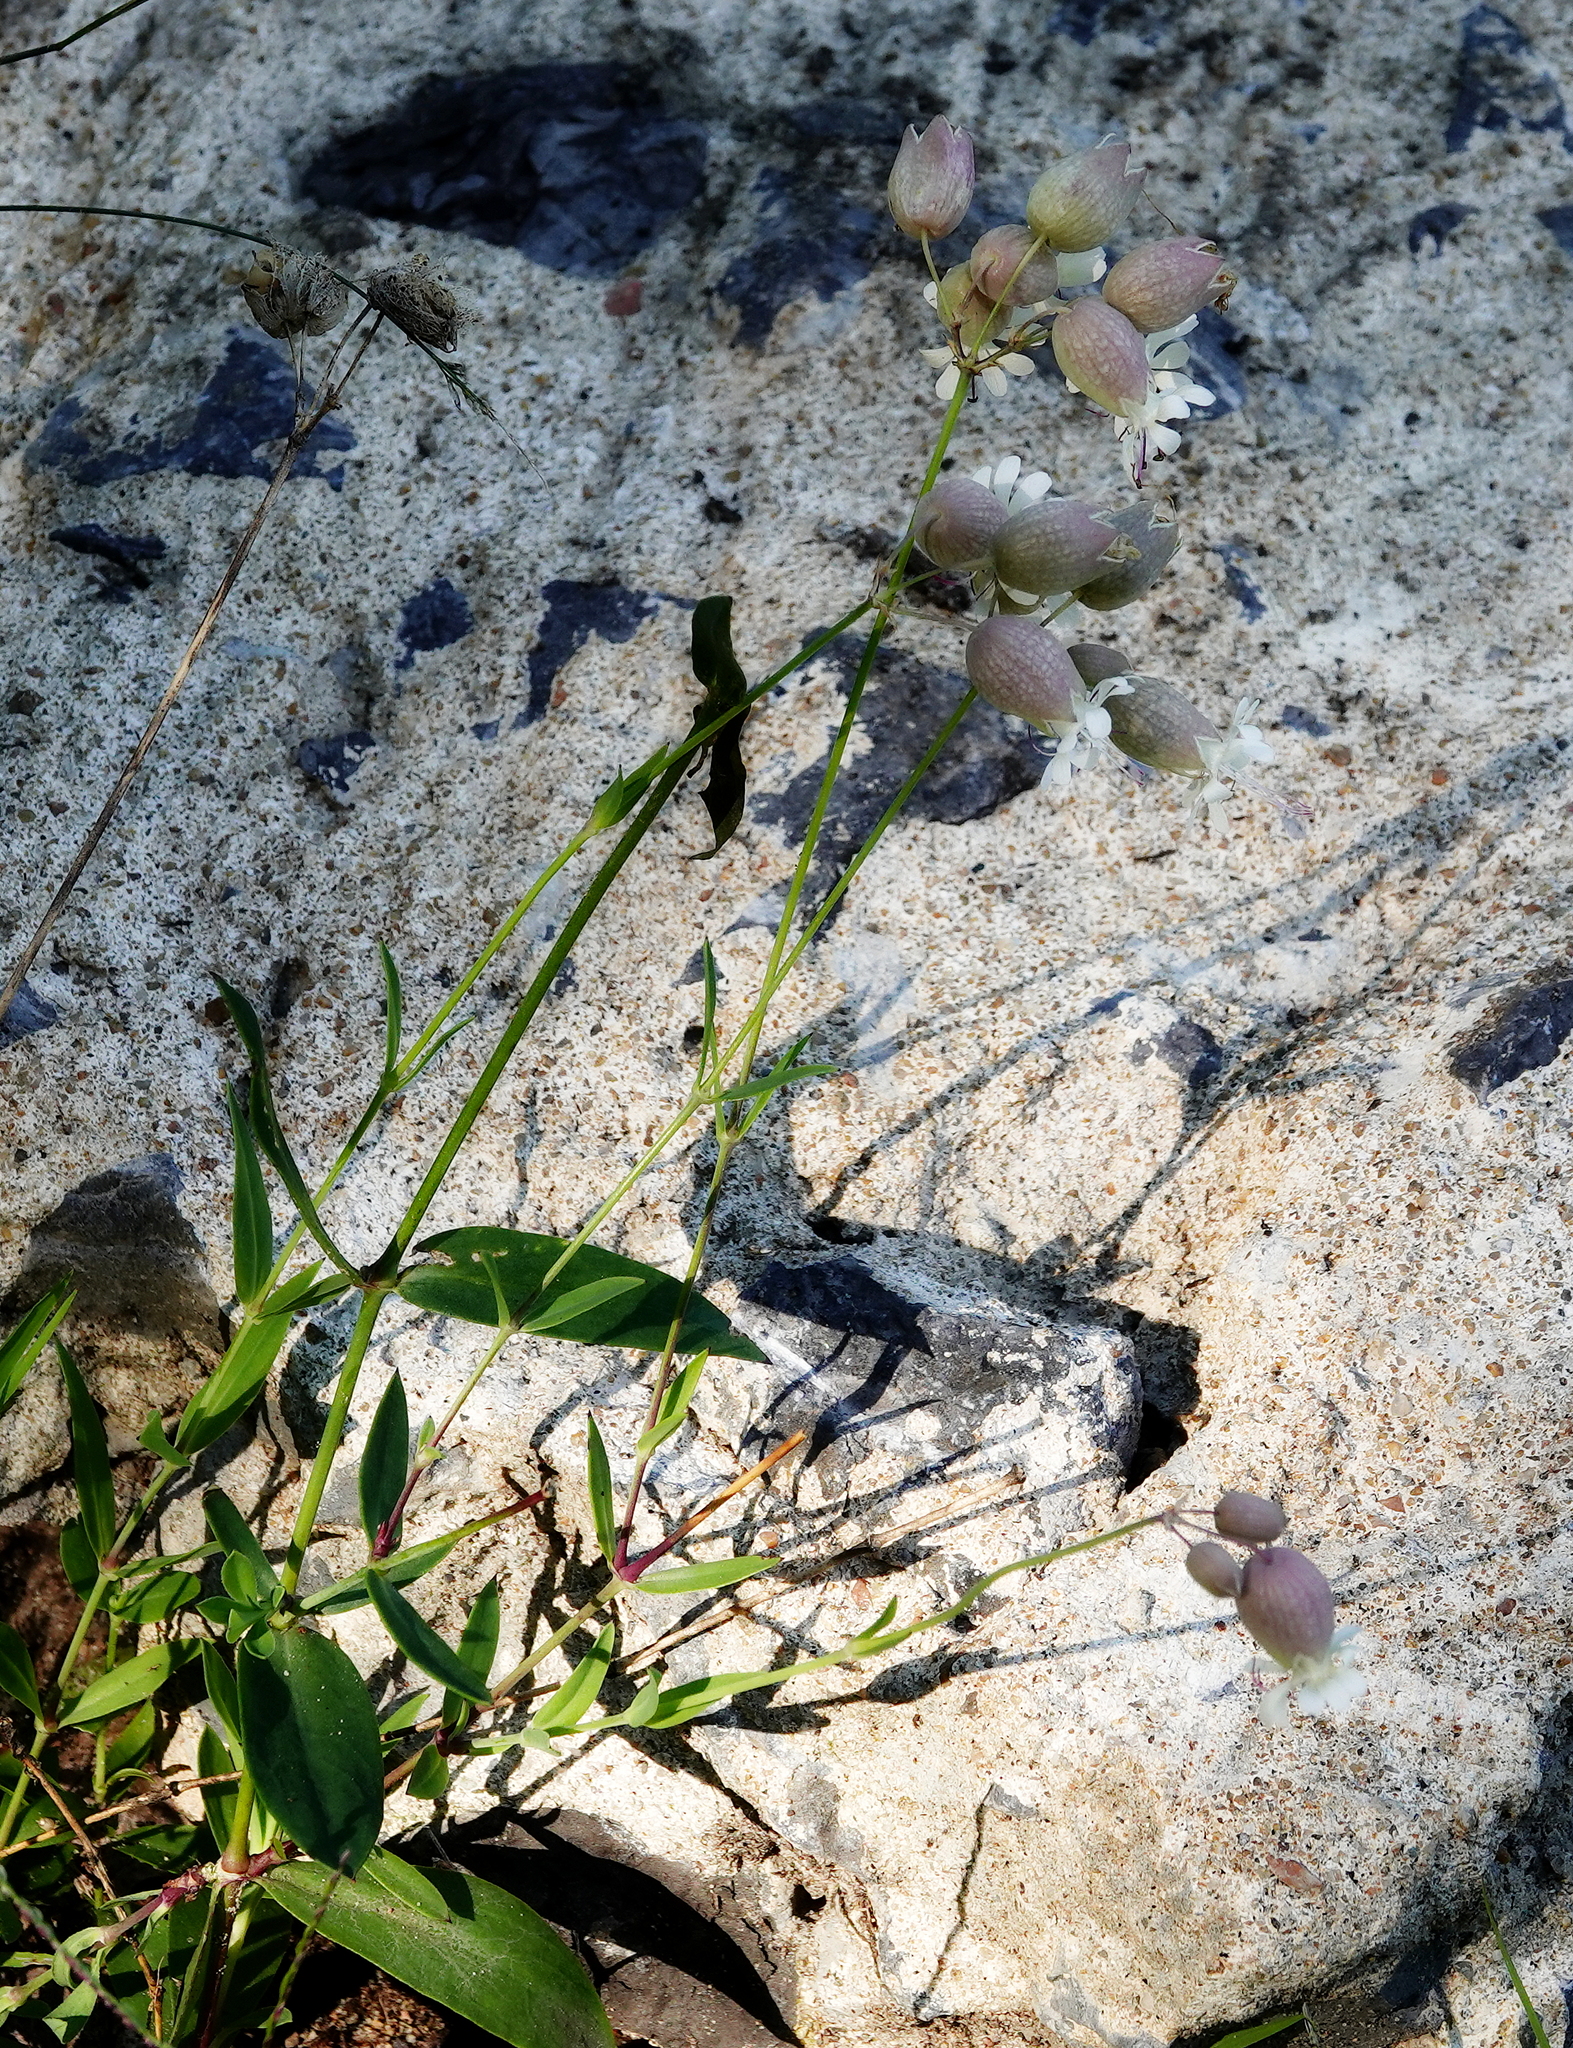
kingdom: Plantae
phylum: Tracheophyta
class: Magnoliopsida
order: Caryophyllales
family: Caryophyllaceae
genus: Silene
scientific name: Silene vulgaris
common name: Bladder campion
